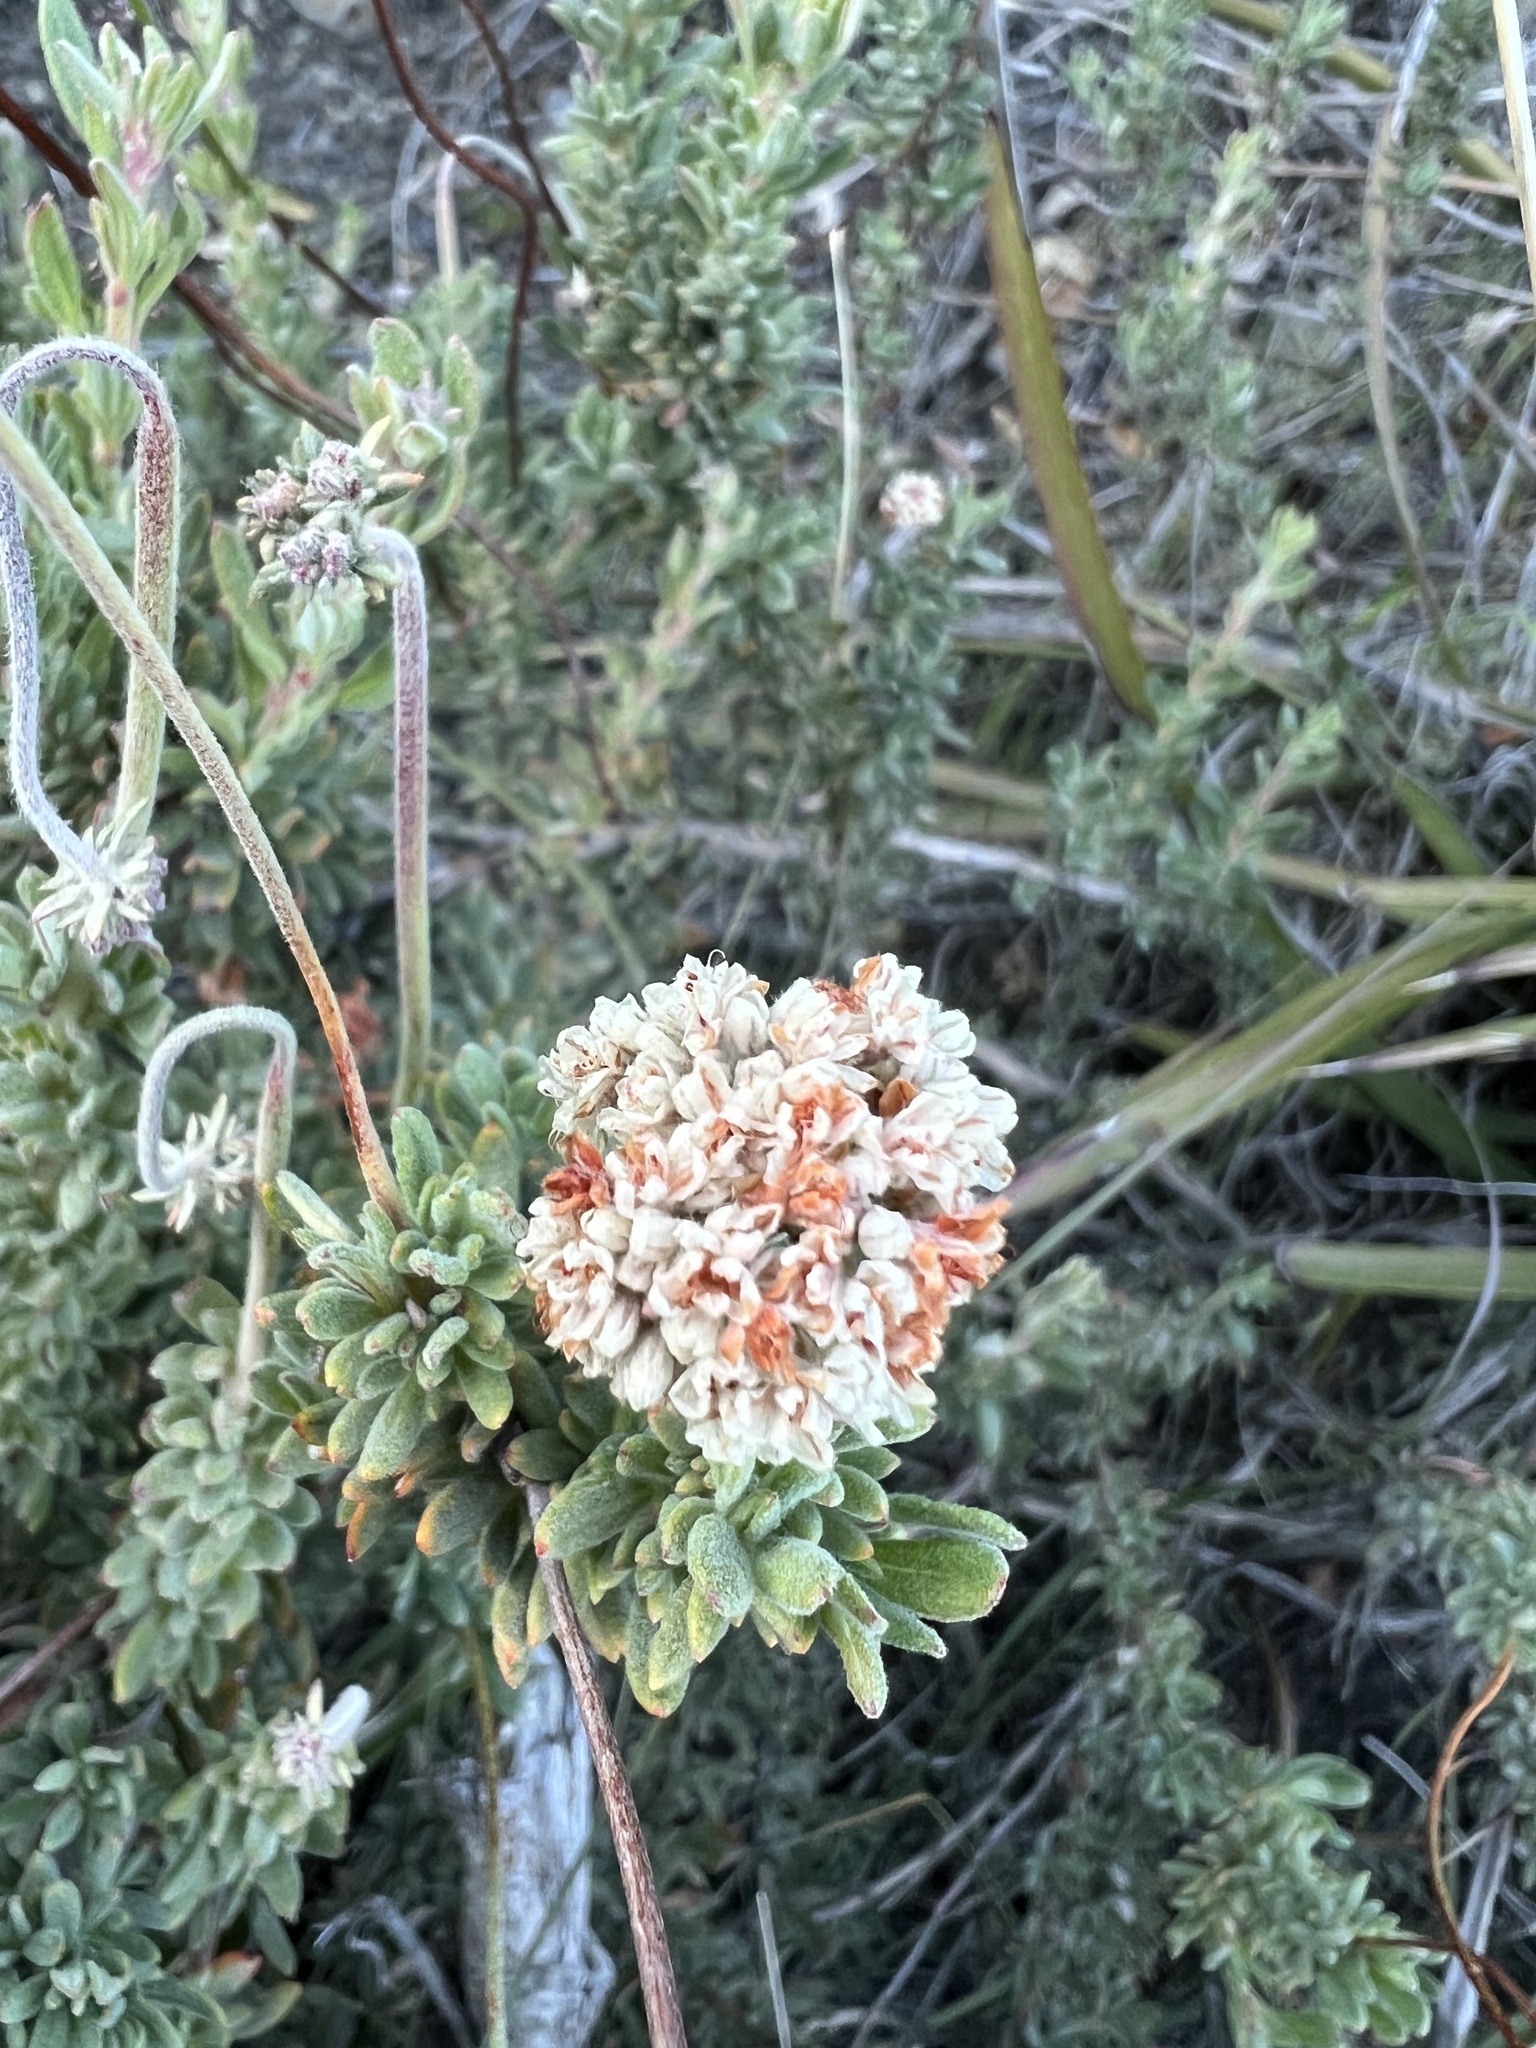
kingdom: Plantae
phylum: Tracheophyta
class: Magnoliopsida
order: Caryophyllales
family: Polygonaceae
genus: Eriogonum
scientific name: Eriogonum fasciculatum
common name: California wild buckwheat
